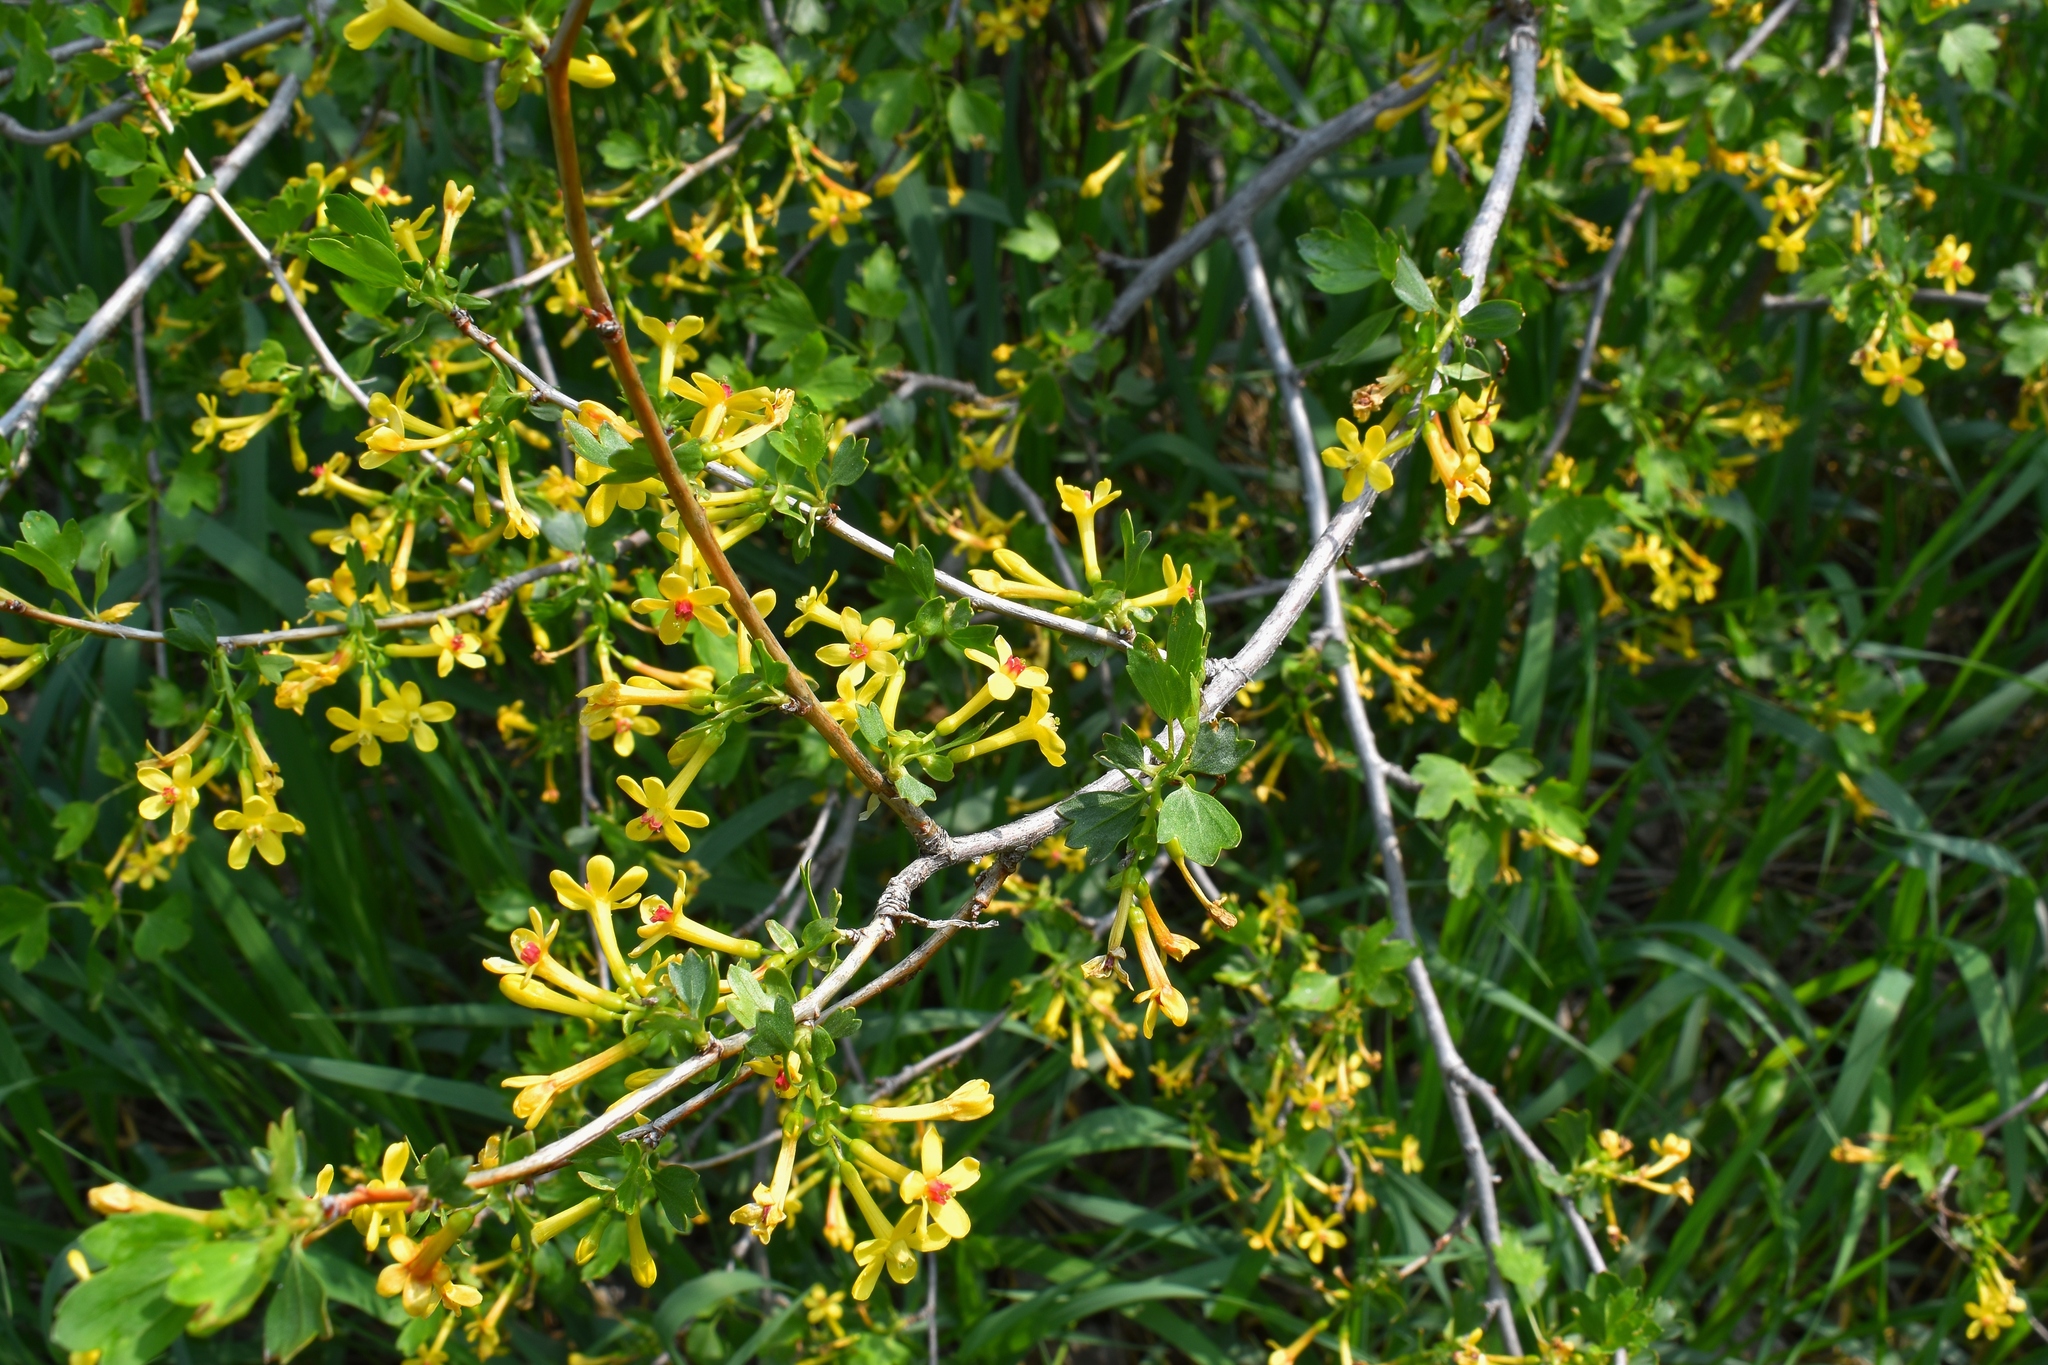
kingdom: Plantae
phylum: Tracheophyta
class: Magnoliopsida
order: Saxifragales
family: Grossulariaceae
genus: Ribes
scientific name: Ribes aureum
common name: Golden currant
